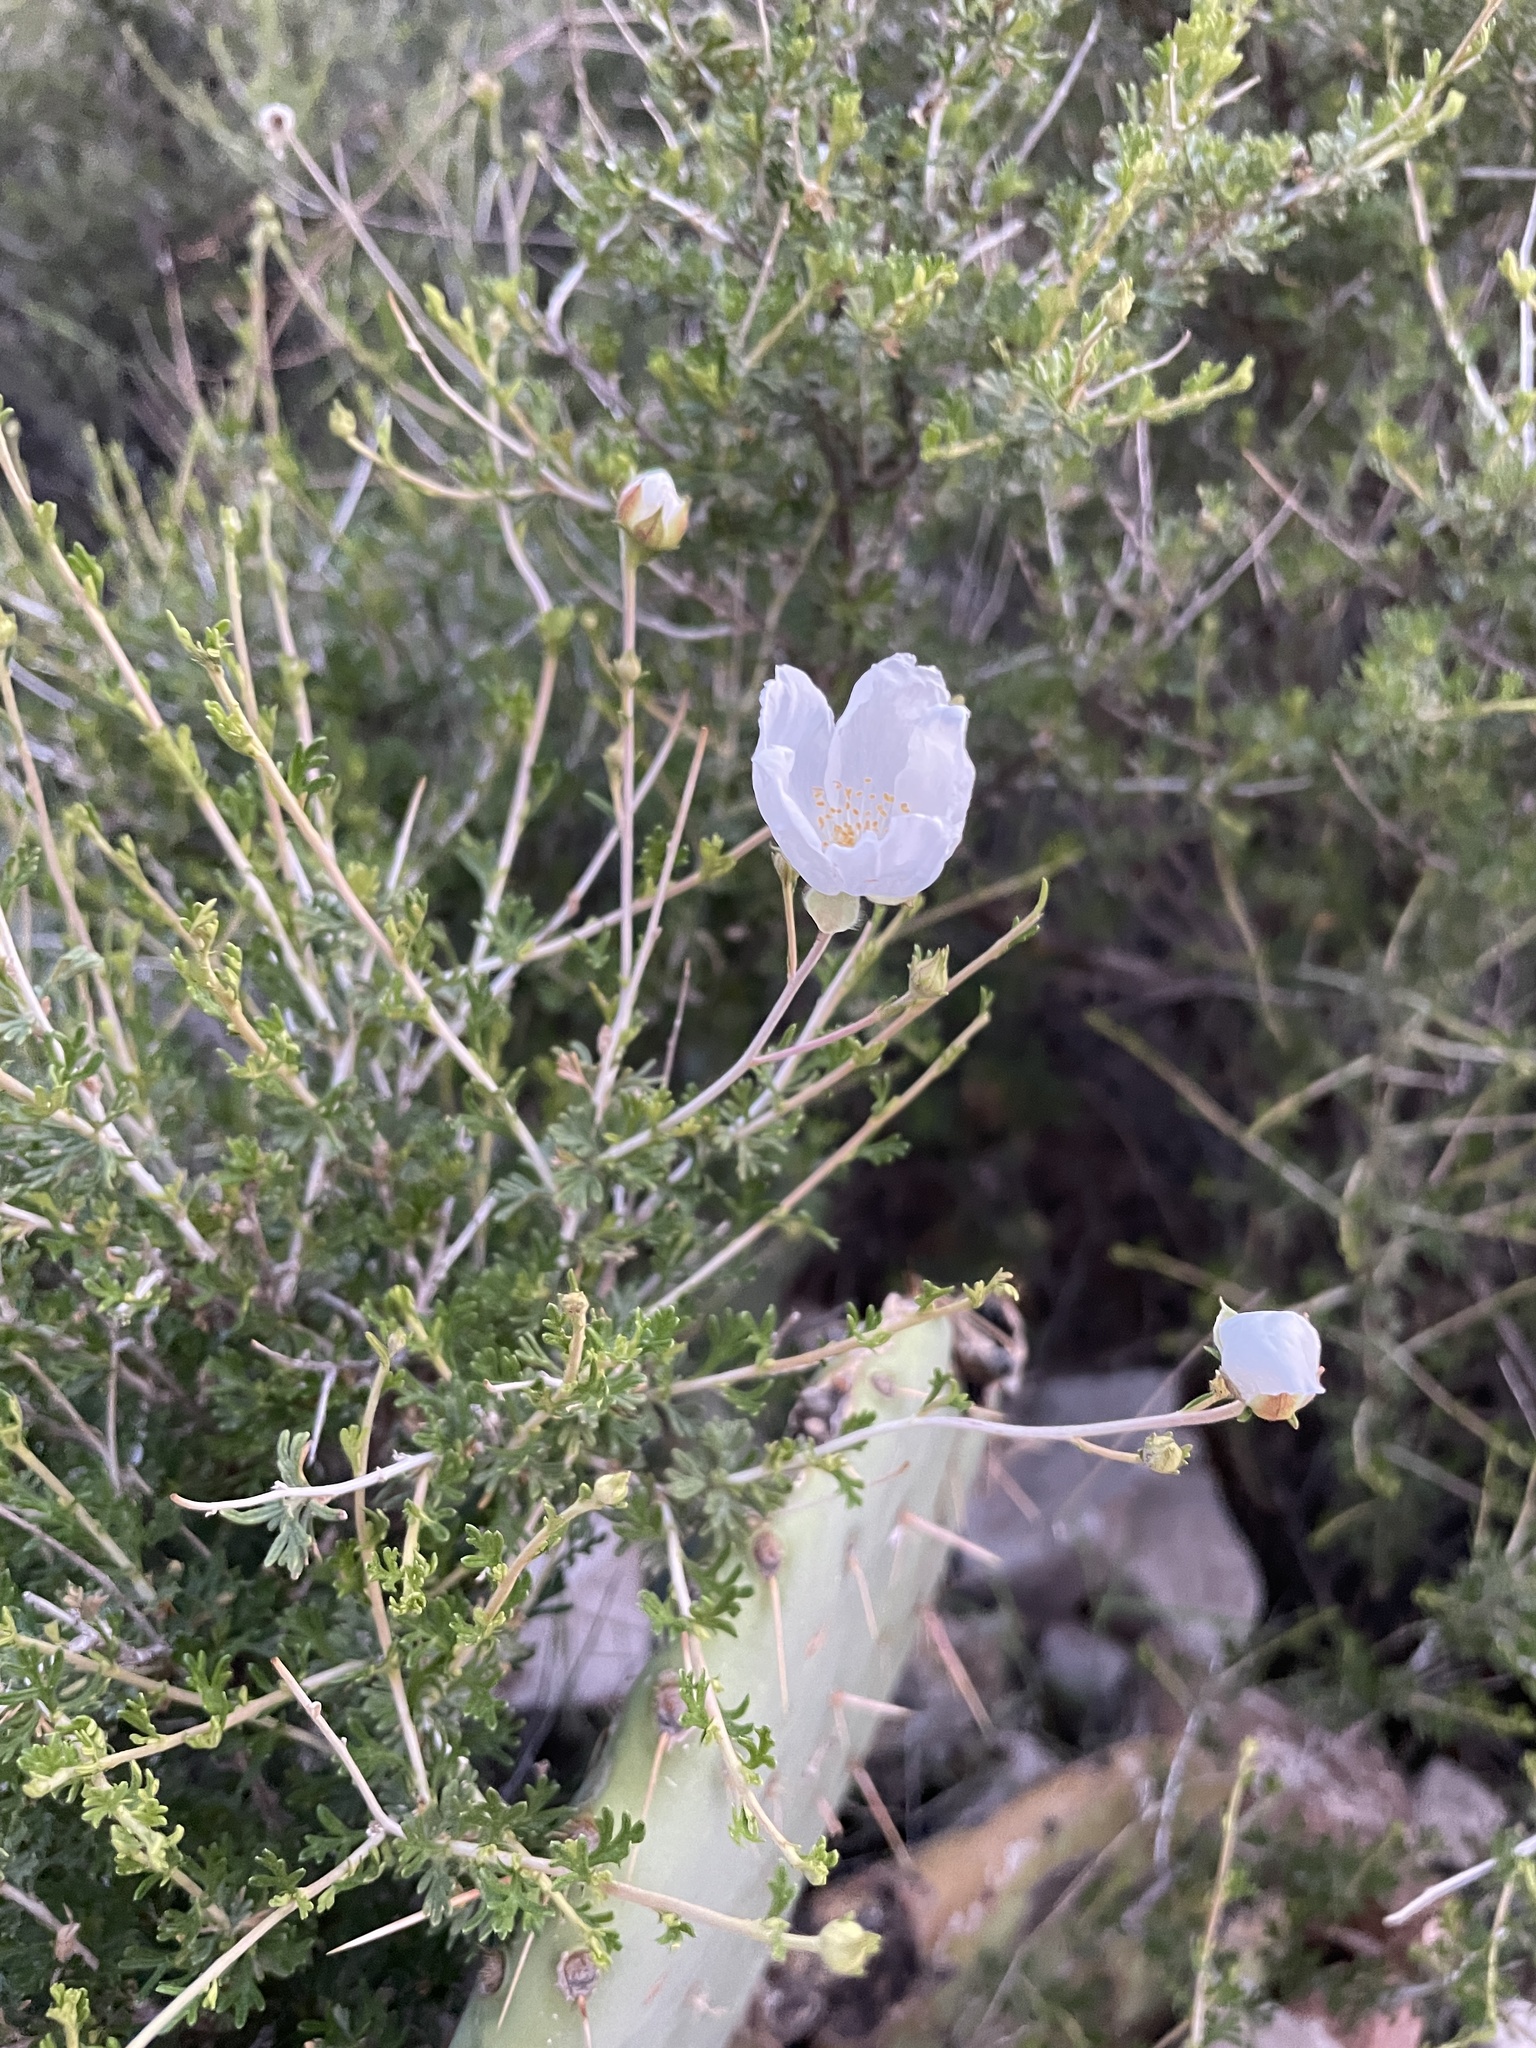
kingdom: Plantae
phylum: Tracheophyta
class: Magnoliopsida
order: Rosales
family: Rosaceae
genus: Fallugia
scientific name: Fallugia paradoxa
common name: Apache-plume
